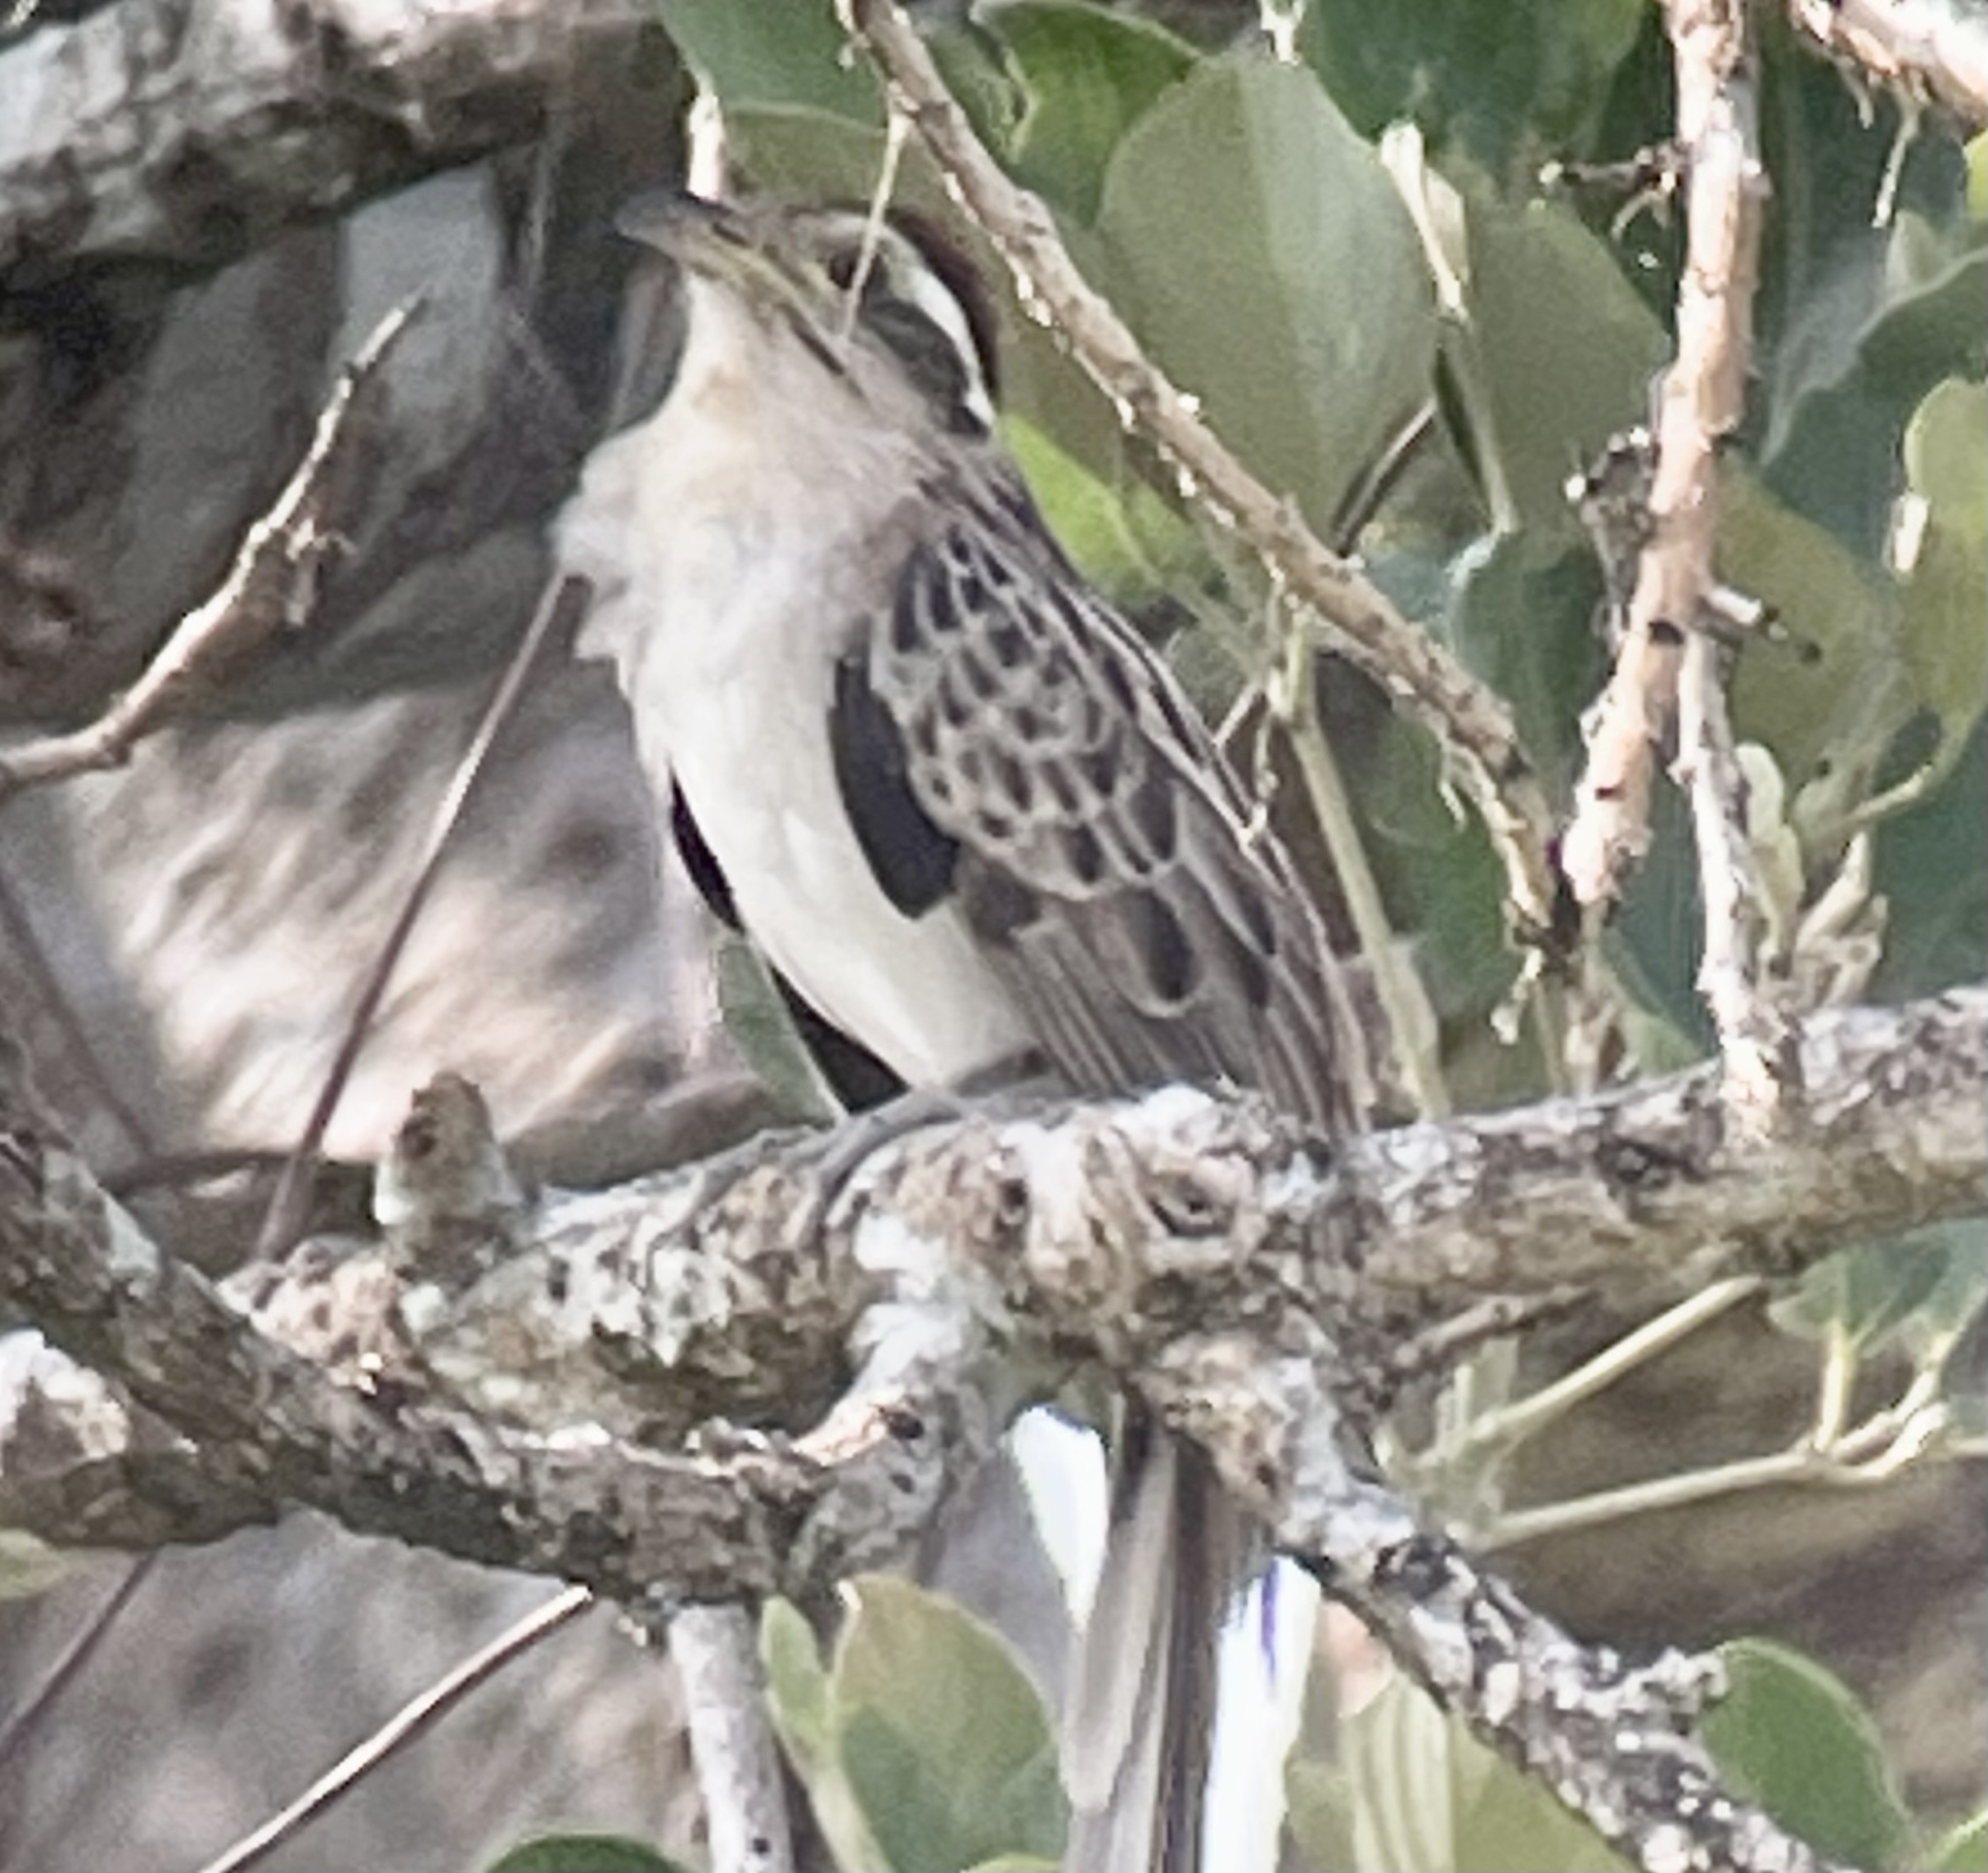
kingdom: Animalia
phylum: Chordata
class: Aves
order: Cuculiformes
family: Cuculidae
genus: Tapera
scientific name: Tapera naevia
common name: Striped cuckoo
